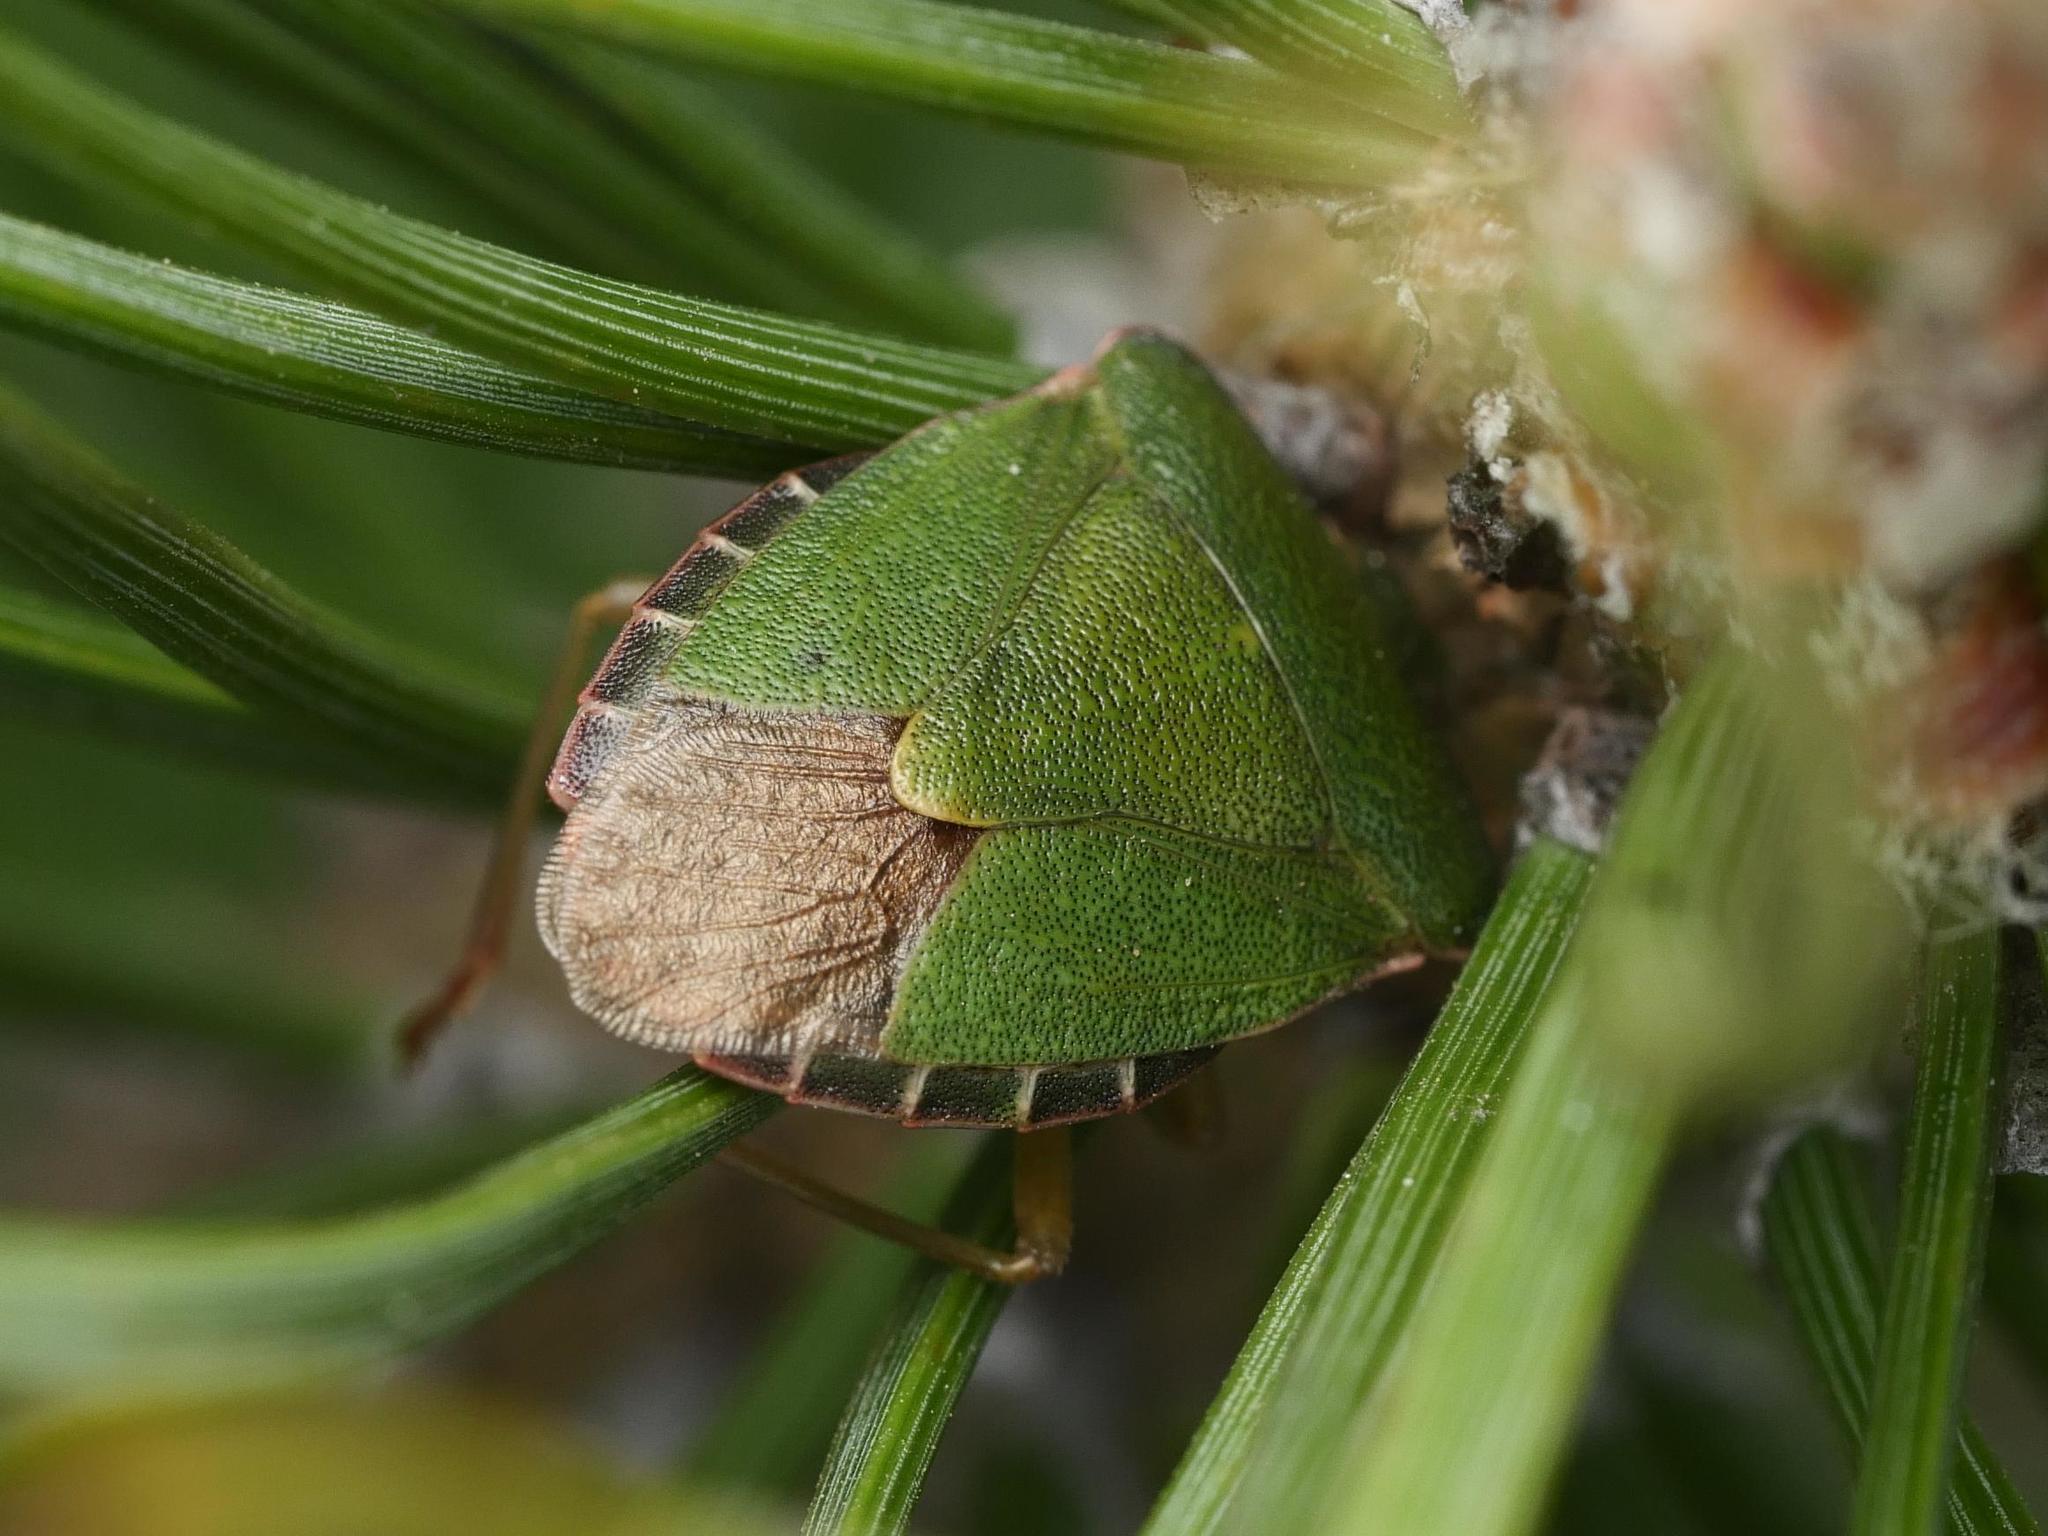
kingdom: Animalia
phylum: Arthropoda
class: Insecta
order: Hemiptera
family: Pentatomidae
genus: Palomena
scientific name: Palomena prasina
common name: Green shieldbug
